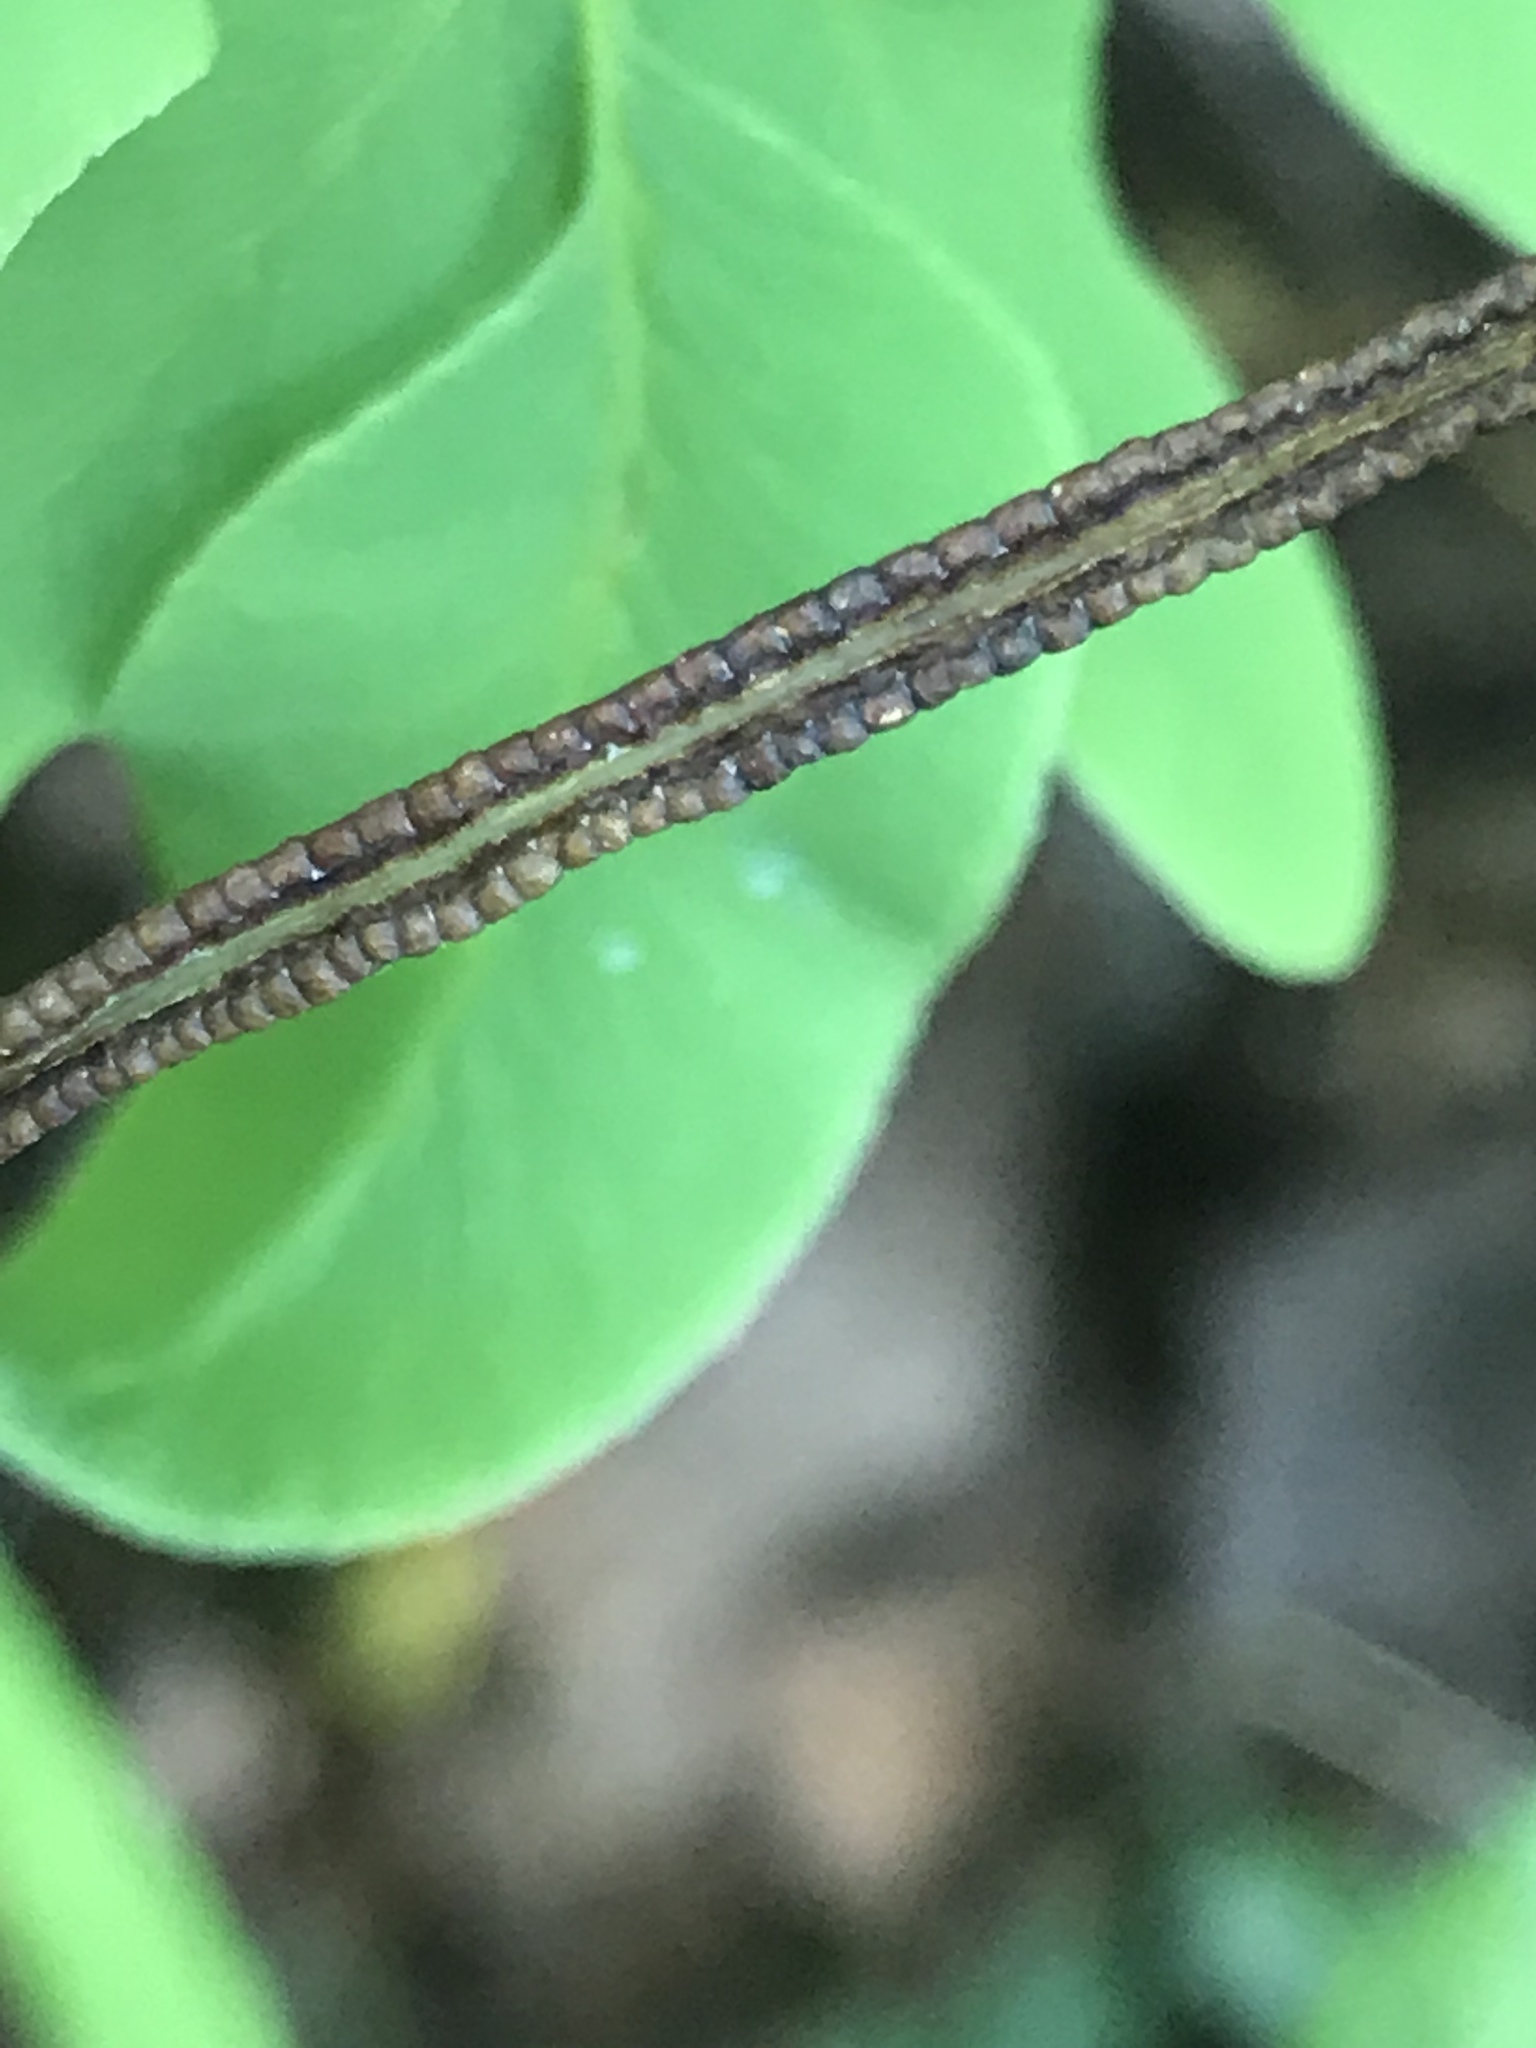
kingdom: Plantae
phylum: Tracheophyta
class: Polypodiopsida
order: Polypodiales
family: Pteridaceae
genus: Llavea
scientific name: Llavea cordifolia
